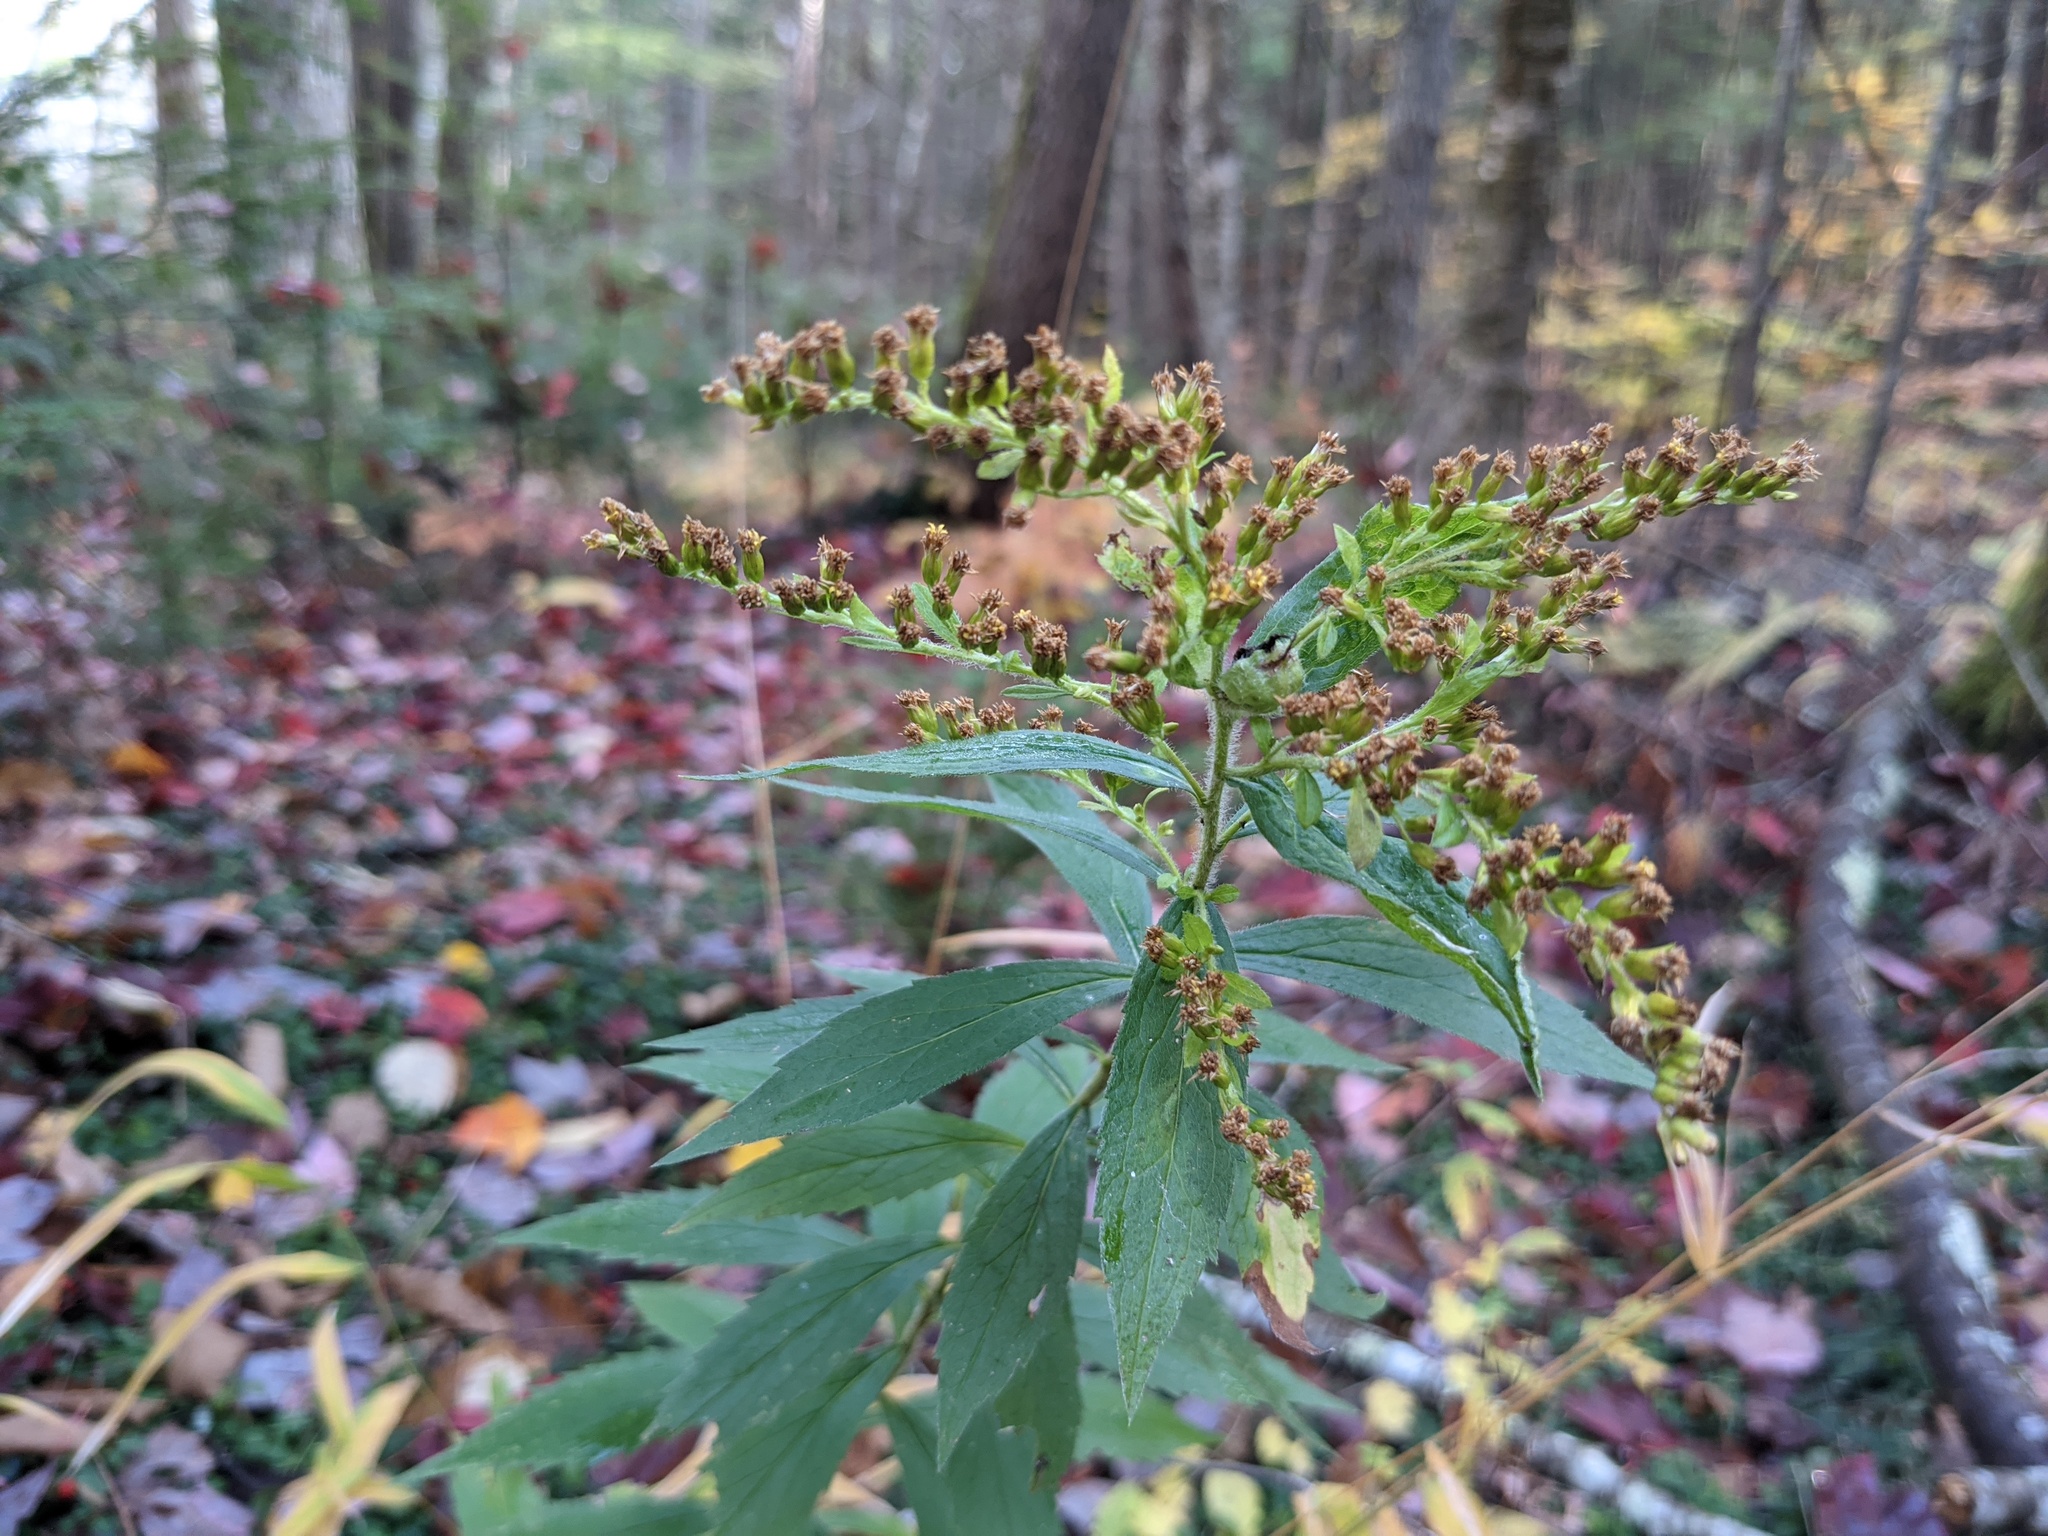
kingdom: Plantae
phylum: Tracheophyta
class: Magnoliopsida
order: Asterales
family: Asteraceae
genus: Solidago
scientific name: Solidago rugosa
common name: Rough-stemmed goldenrod
